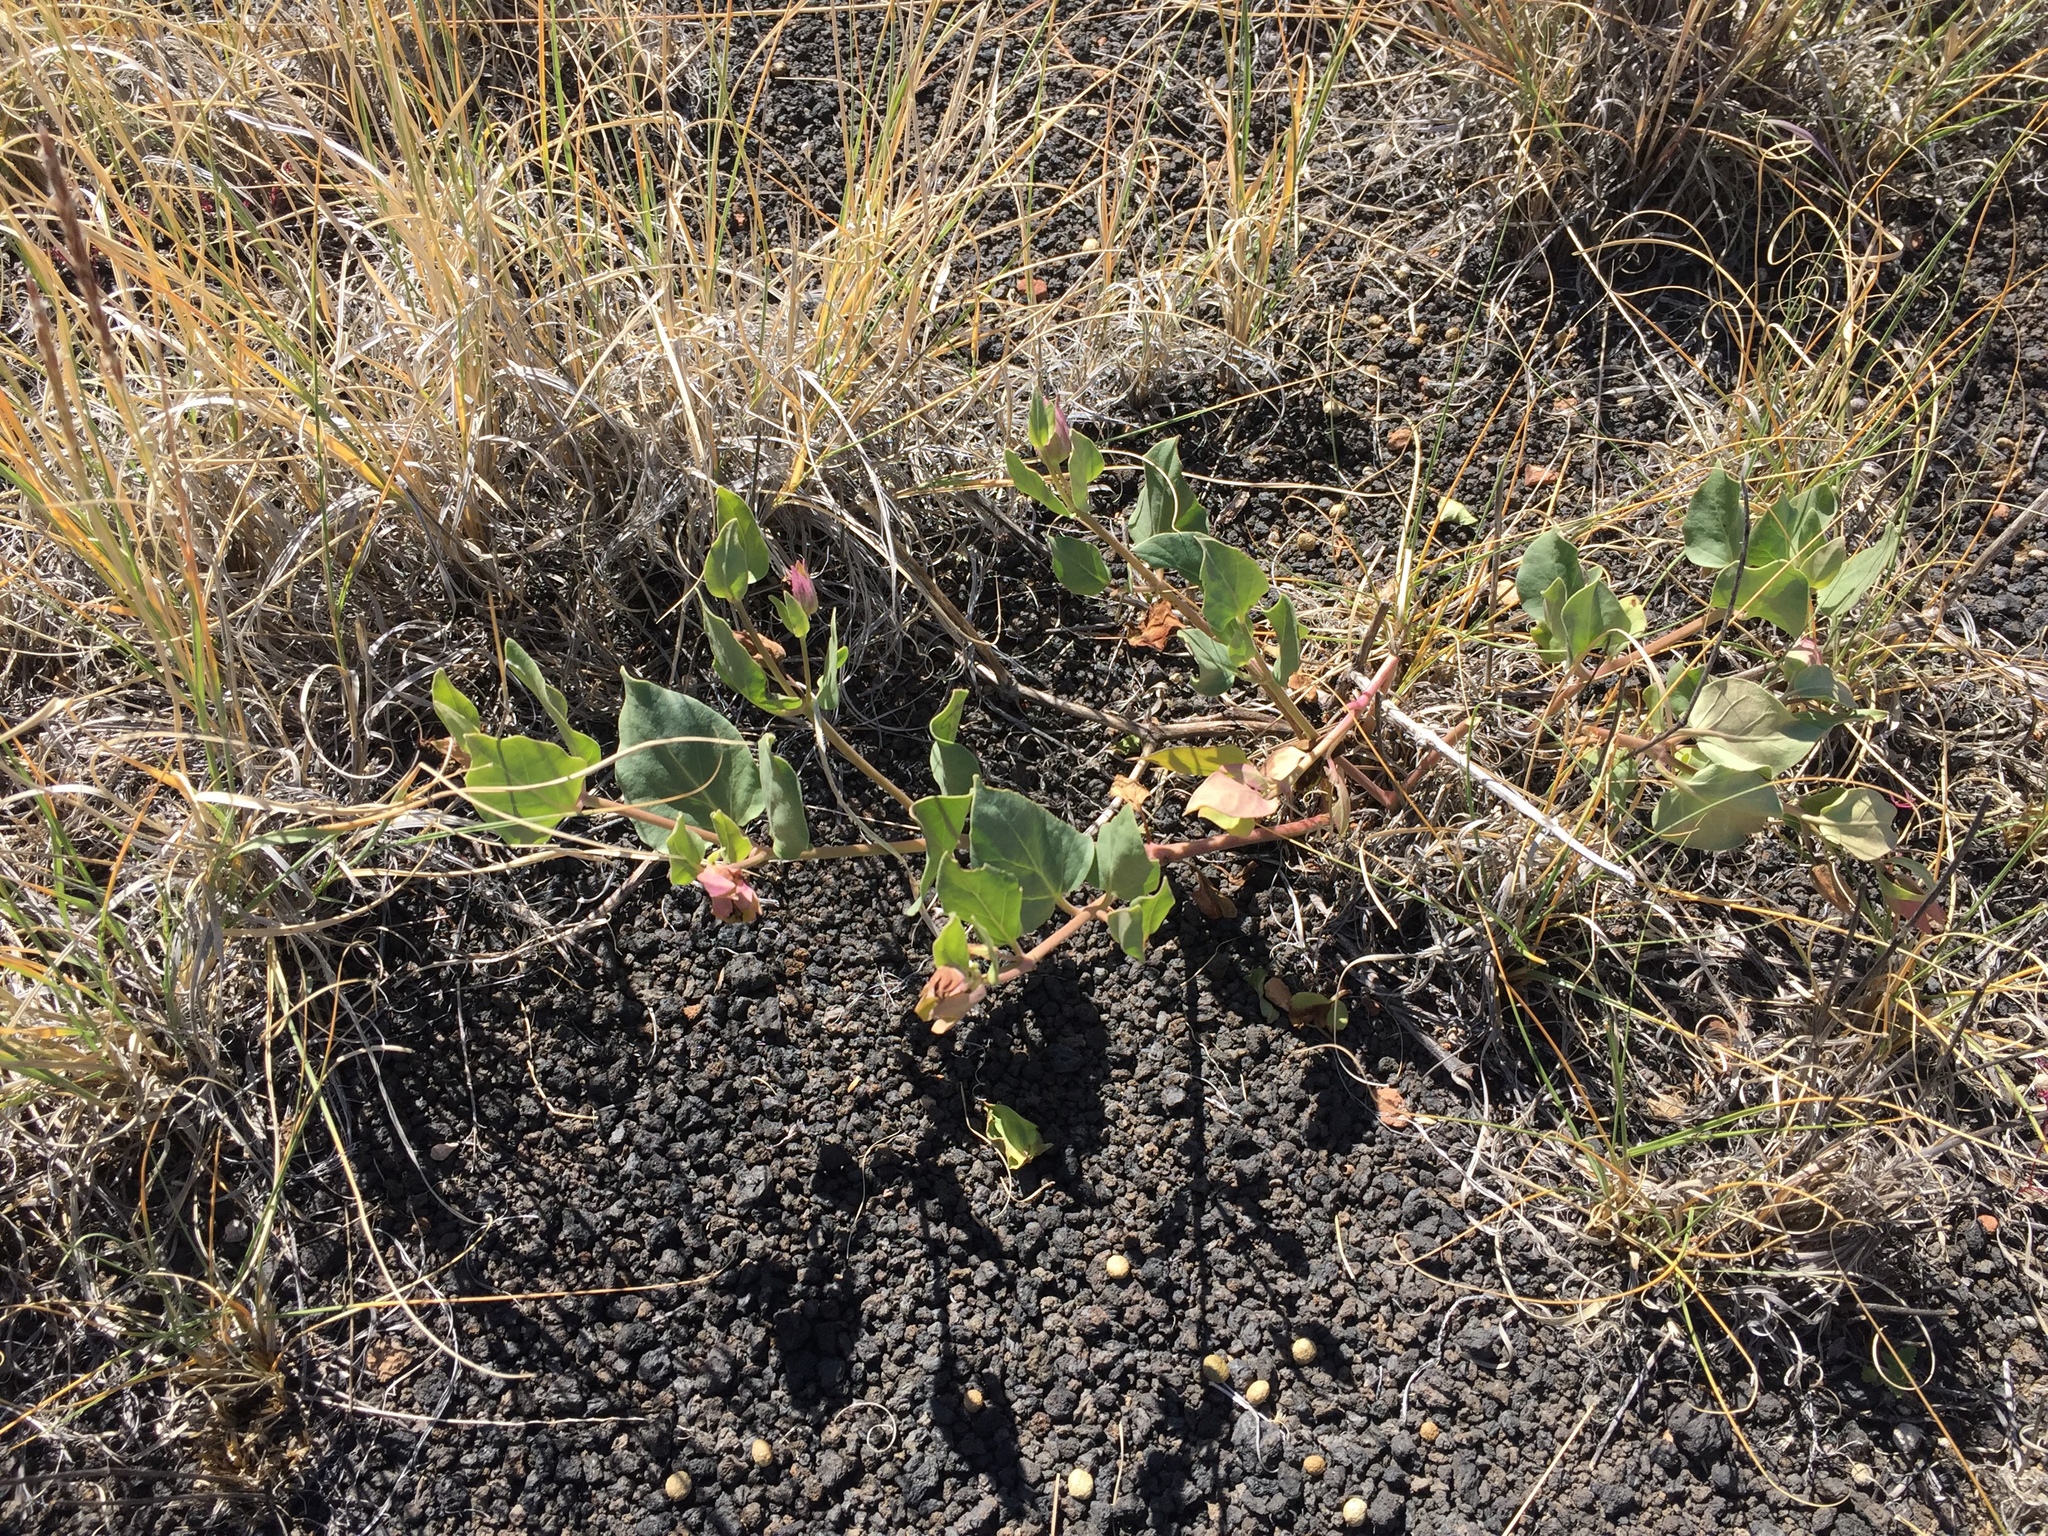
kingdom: Plantae
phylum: Tracheophyta
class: Magnoliopsida
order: Caryophyllales
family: Nyctaginaceae
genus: Mirabilis
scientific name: Mirabilis multiflora
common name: Froebel's four-o'clock
